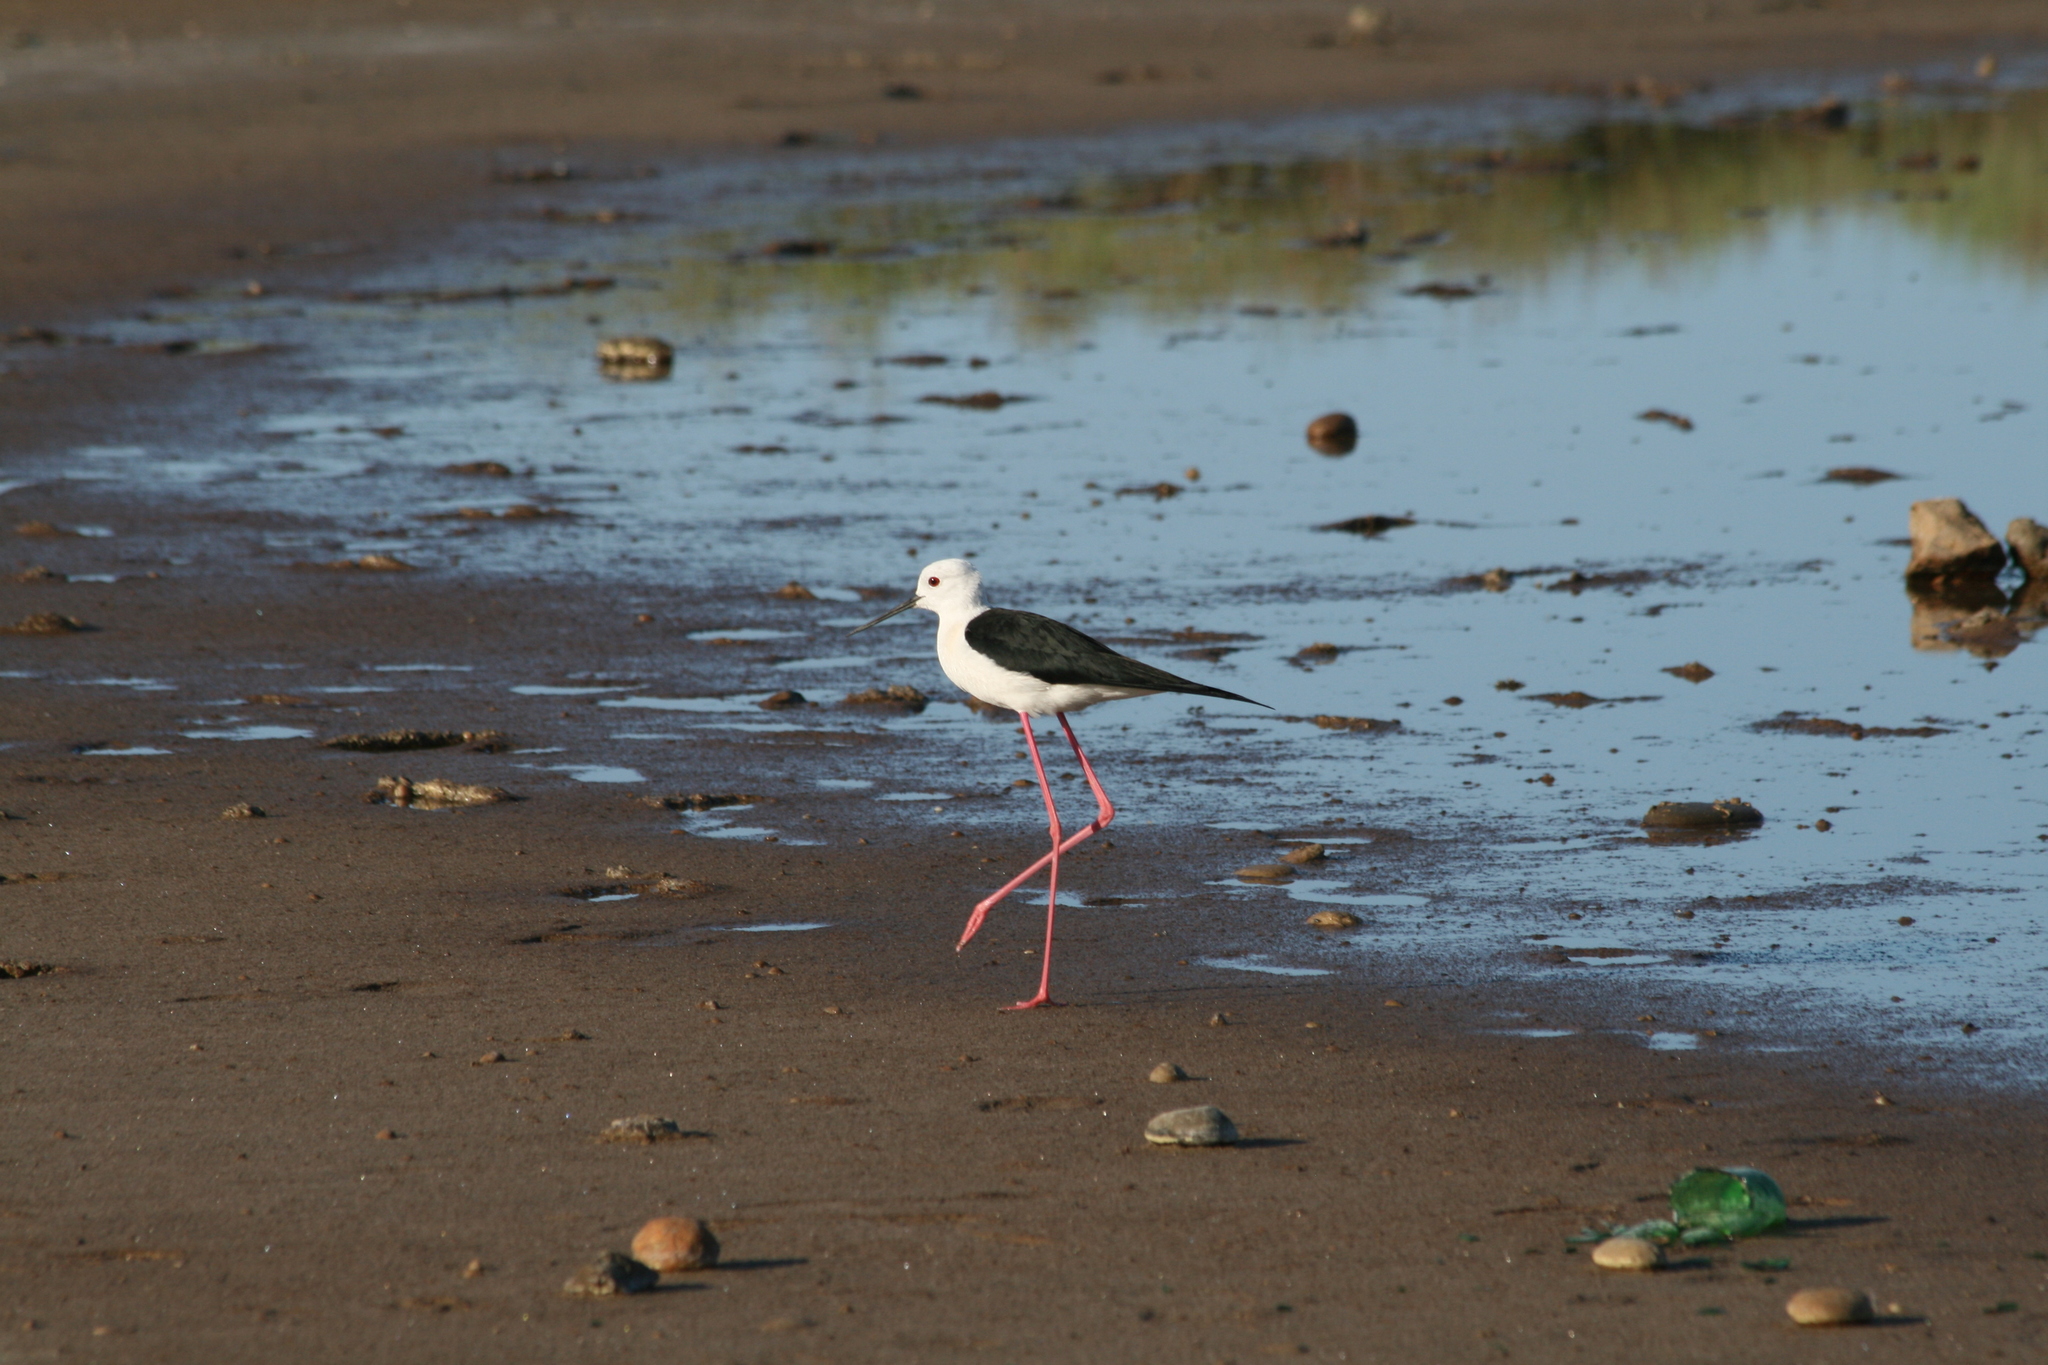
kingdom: Animalia
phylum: Chordata
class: Aves
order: Charadriiformes
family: Recurvirostridae
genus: Himantopus
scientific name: Himantopus himantopus
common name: Black-winged stilt
